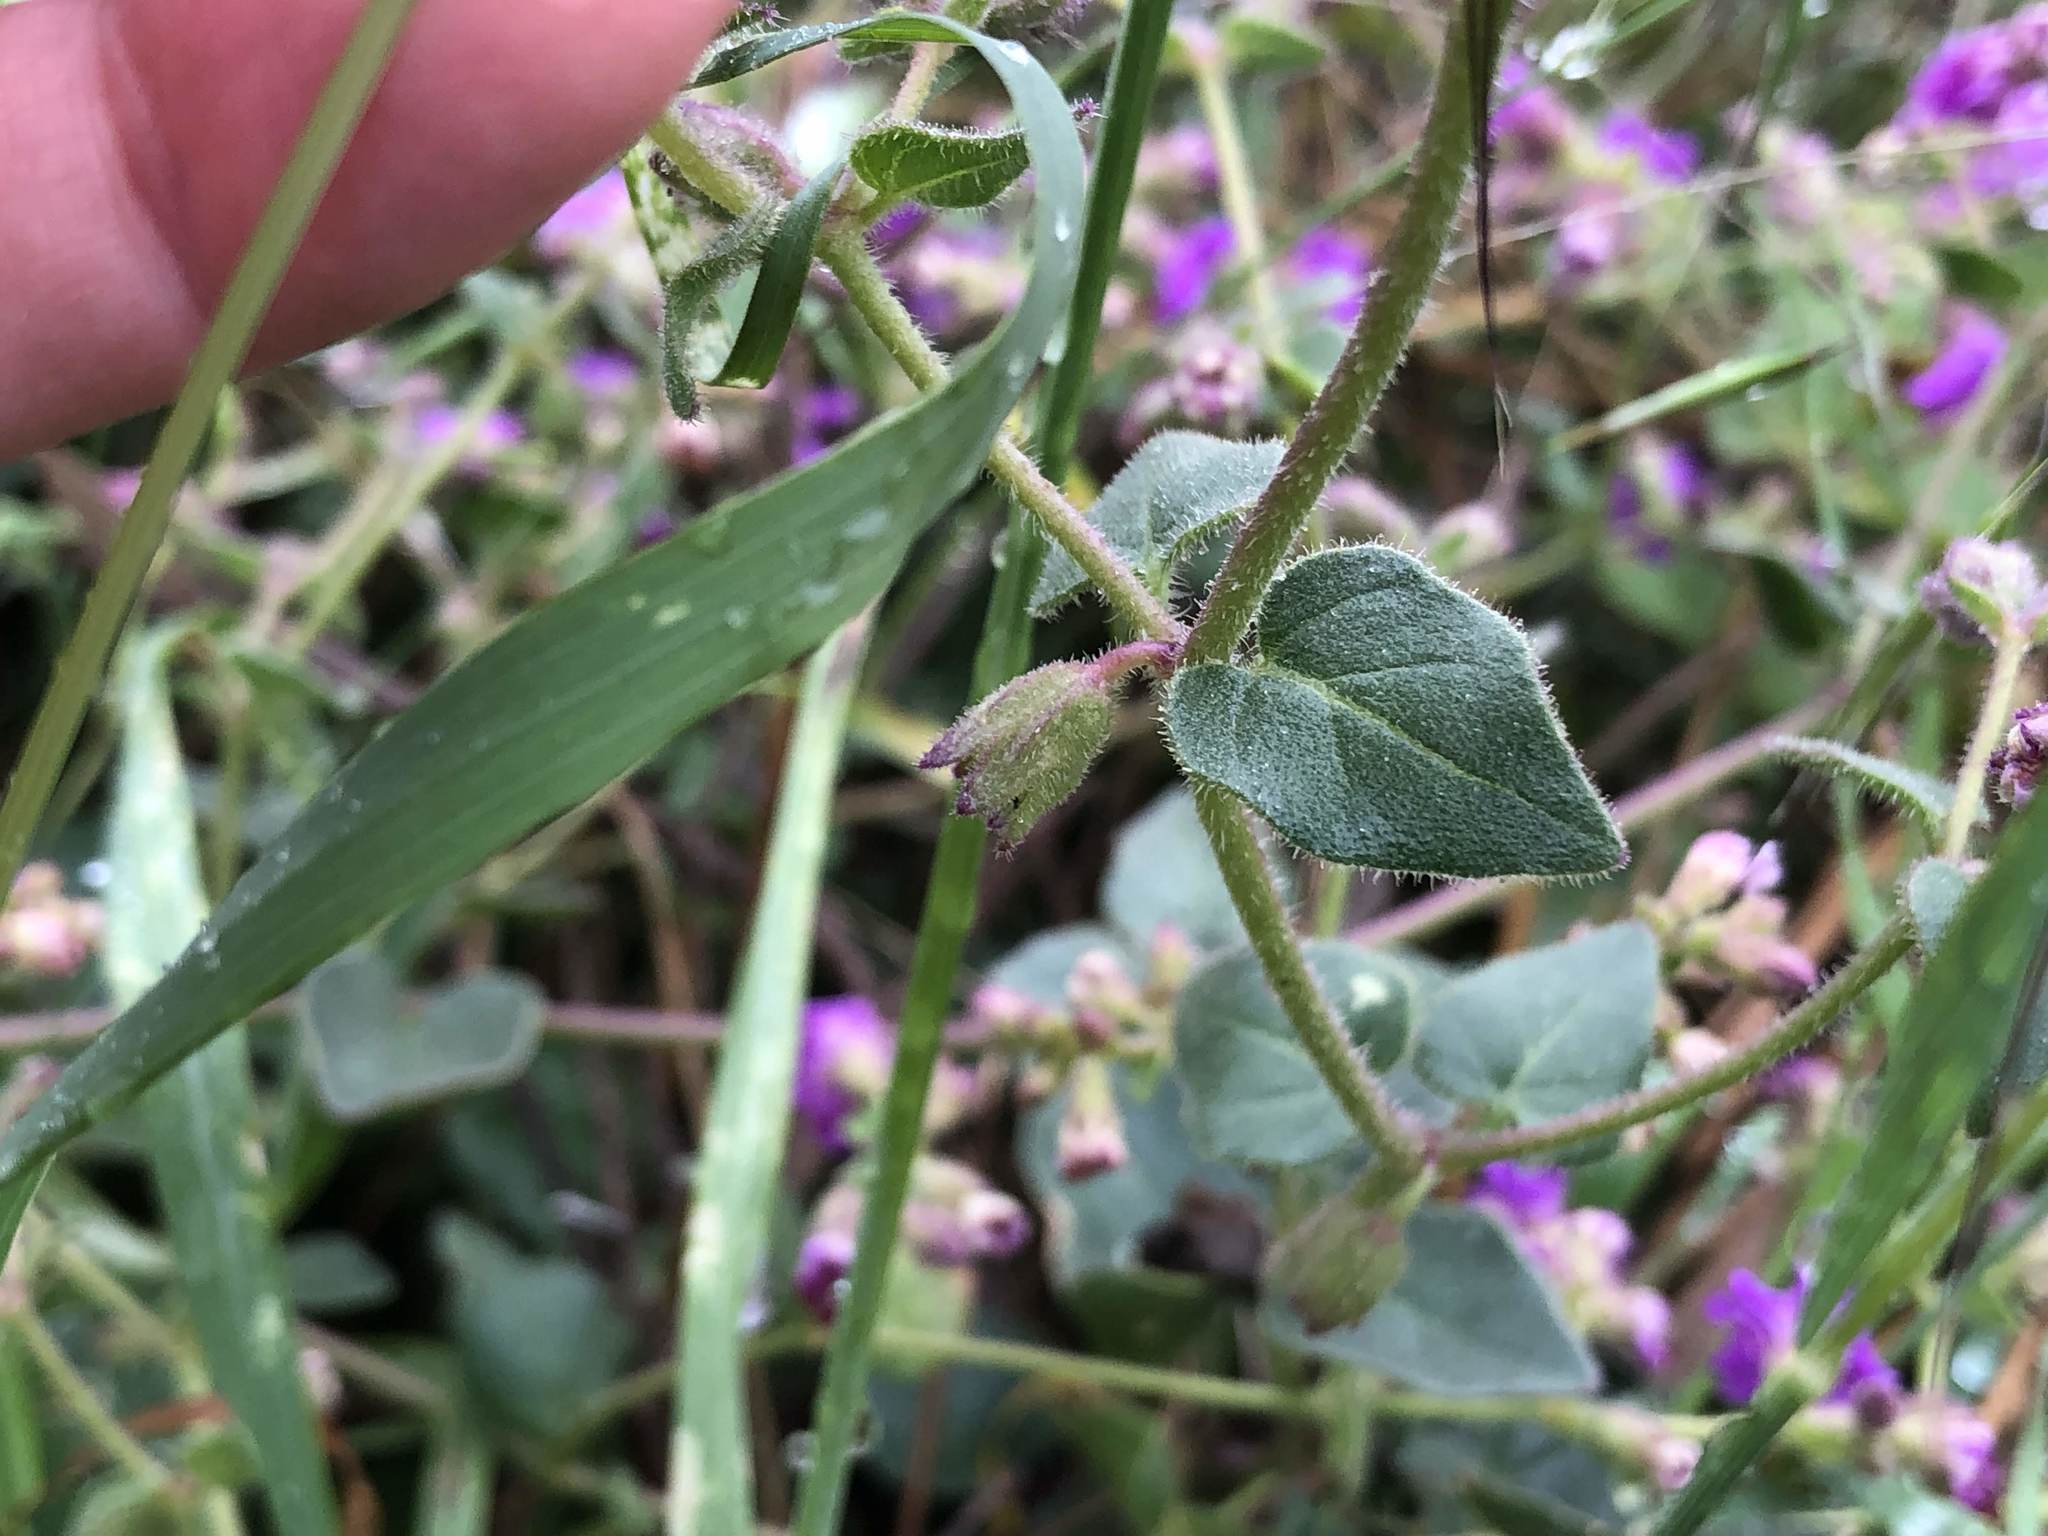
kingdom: Plantae
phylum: Tracheophyta
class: Magnoliopsida
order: Caryophyllales
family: Nyctaginaceae
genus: Mirabilis
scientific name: Mirabilis laevis
